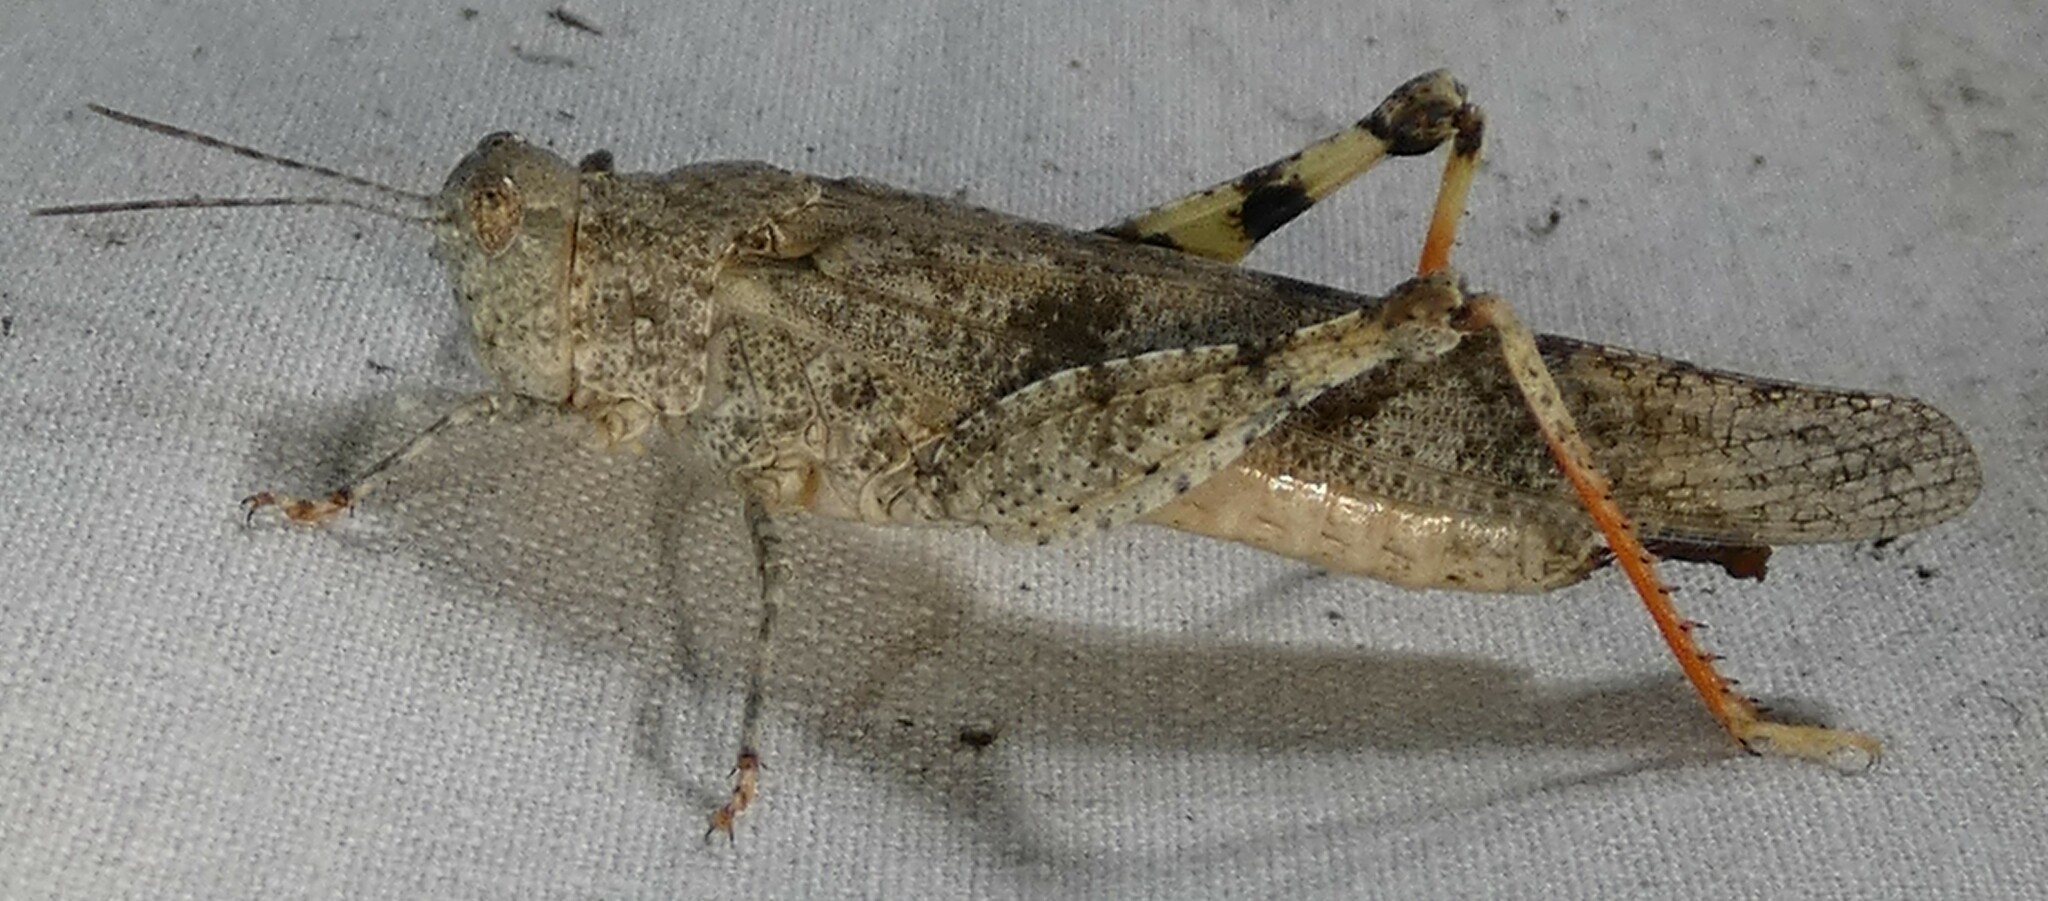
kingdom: Animalia
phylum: Arthropoda
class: Insecta
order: Orthoptera
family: Acrididae
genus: Trimerotropis
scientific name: Trimerotropis maritima
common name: Seaside locust
